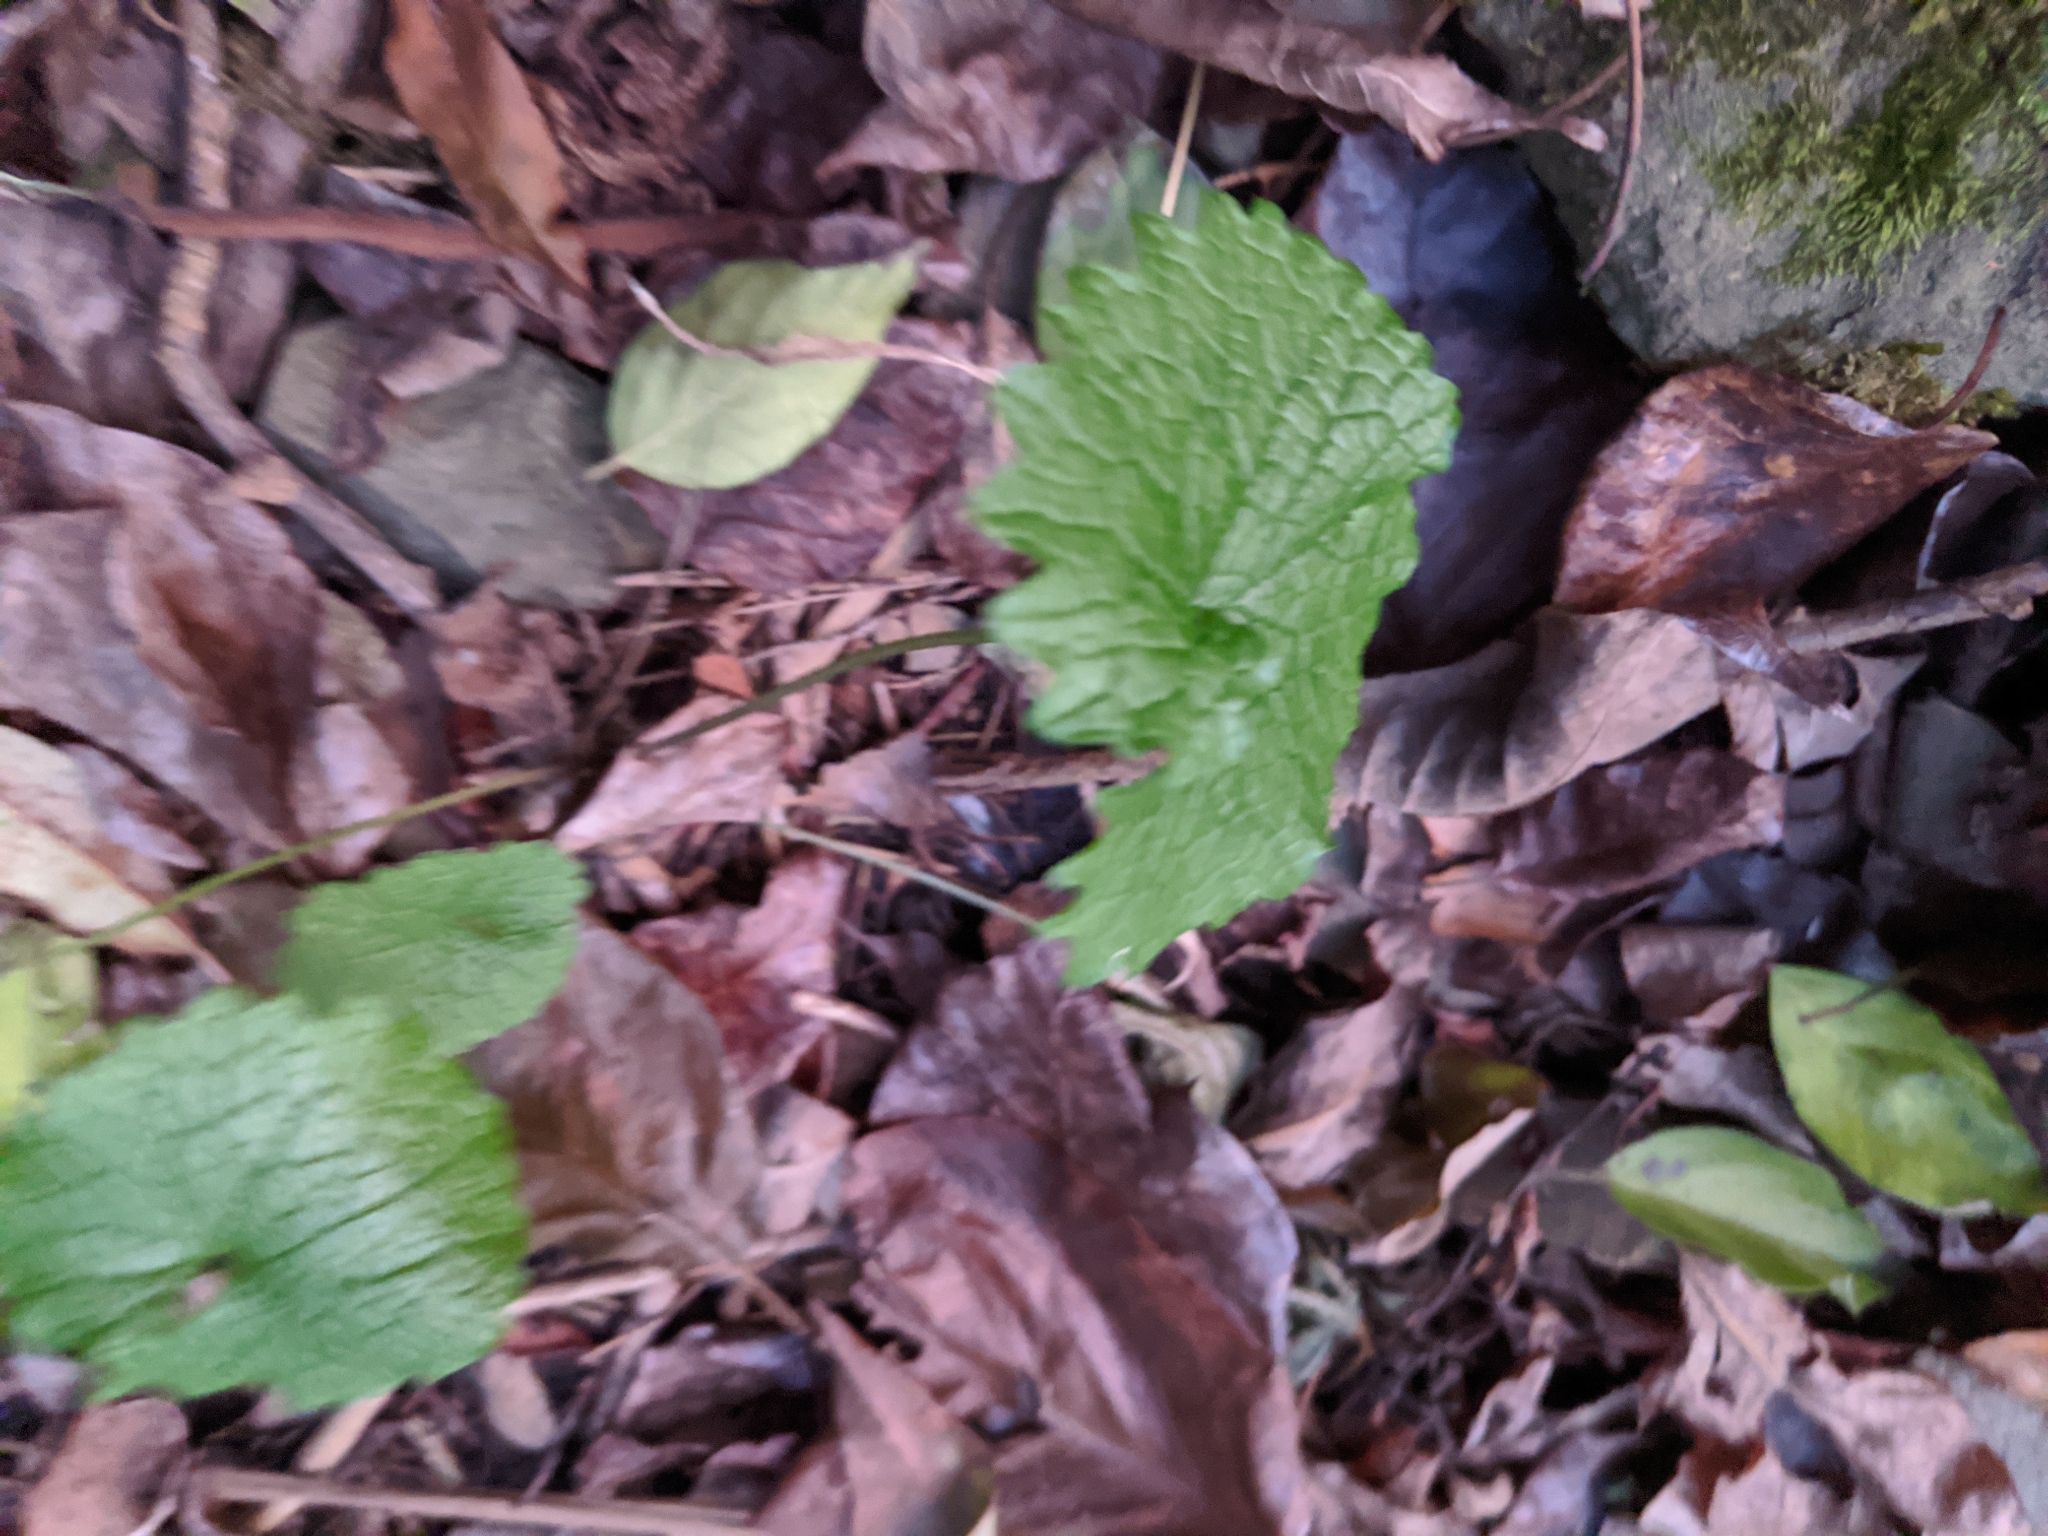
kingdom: Plantae
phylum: Tracheophyta
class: Magnoliopsida
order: Brassicales
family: Brassicaceae
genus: Alliaria
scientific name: Alliaria petiolata
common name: Garlic mustard
